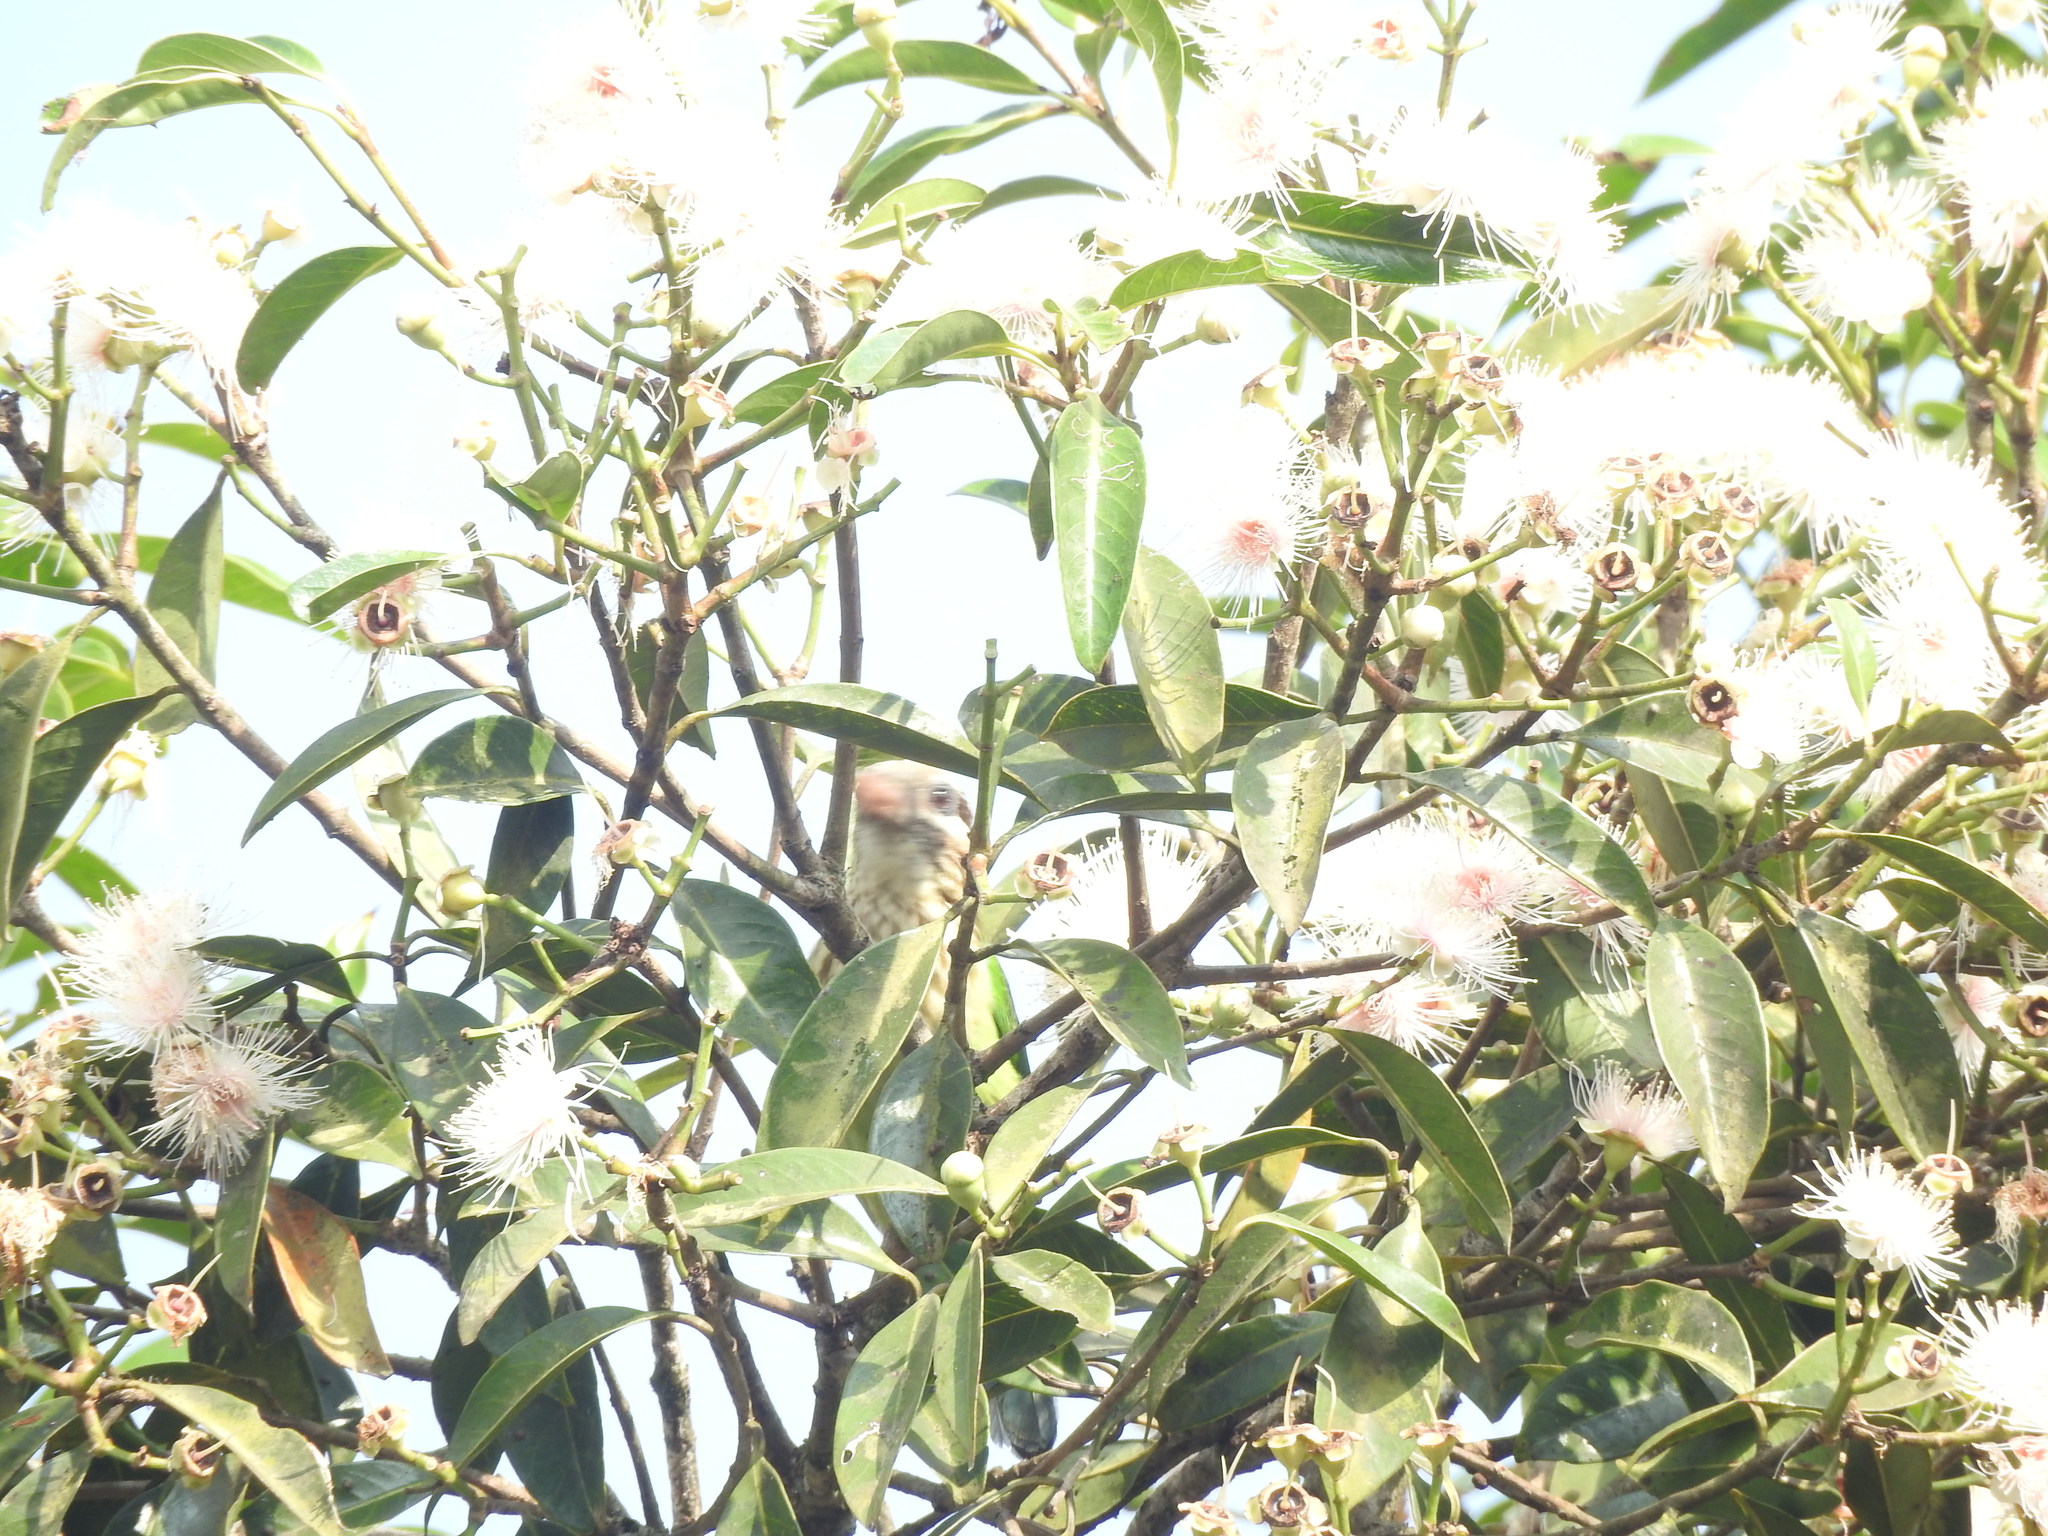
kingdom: Animalia
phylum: Chordata
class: Aves
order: Piciformes
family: Megalaimidae
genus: Psilopogon
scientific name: Psilopogon viridis
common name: White-cheeked barbet
